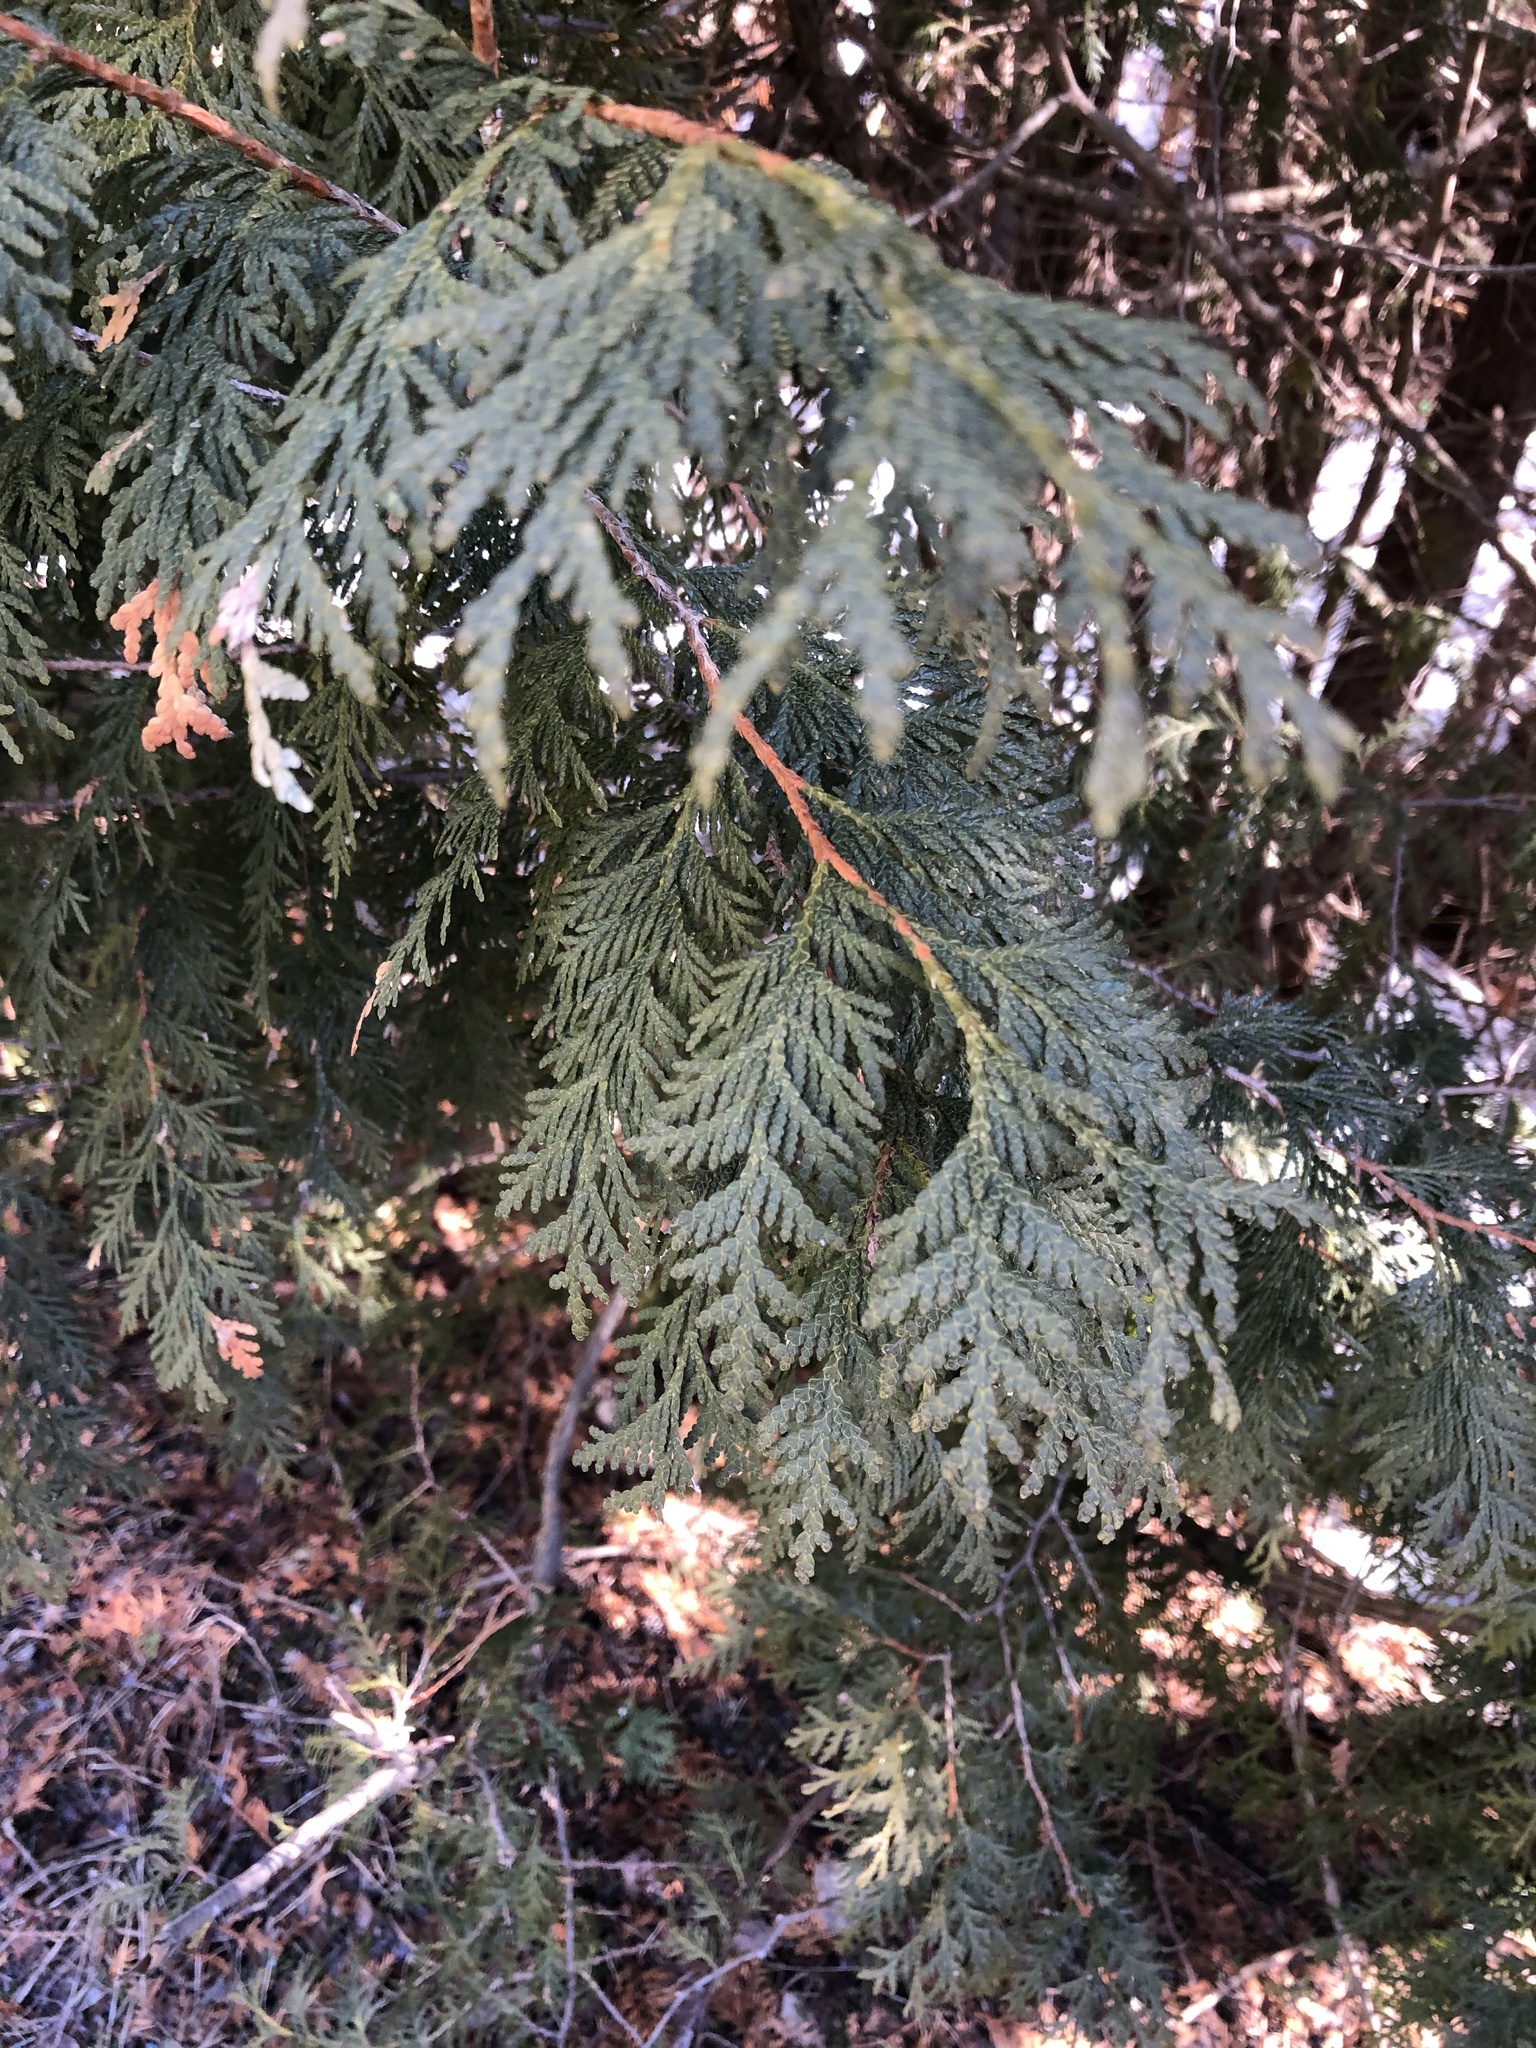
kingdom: Plantae
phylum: Tracheophyta
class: Pinopsida
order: Pinales
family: Cupressaceae
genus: Thuja
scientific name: Thuja occidentalis
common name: Northern white-cedar
